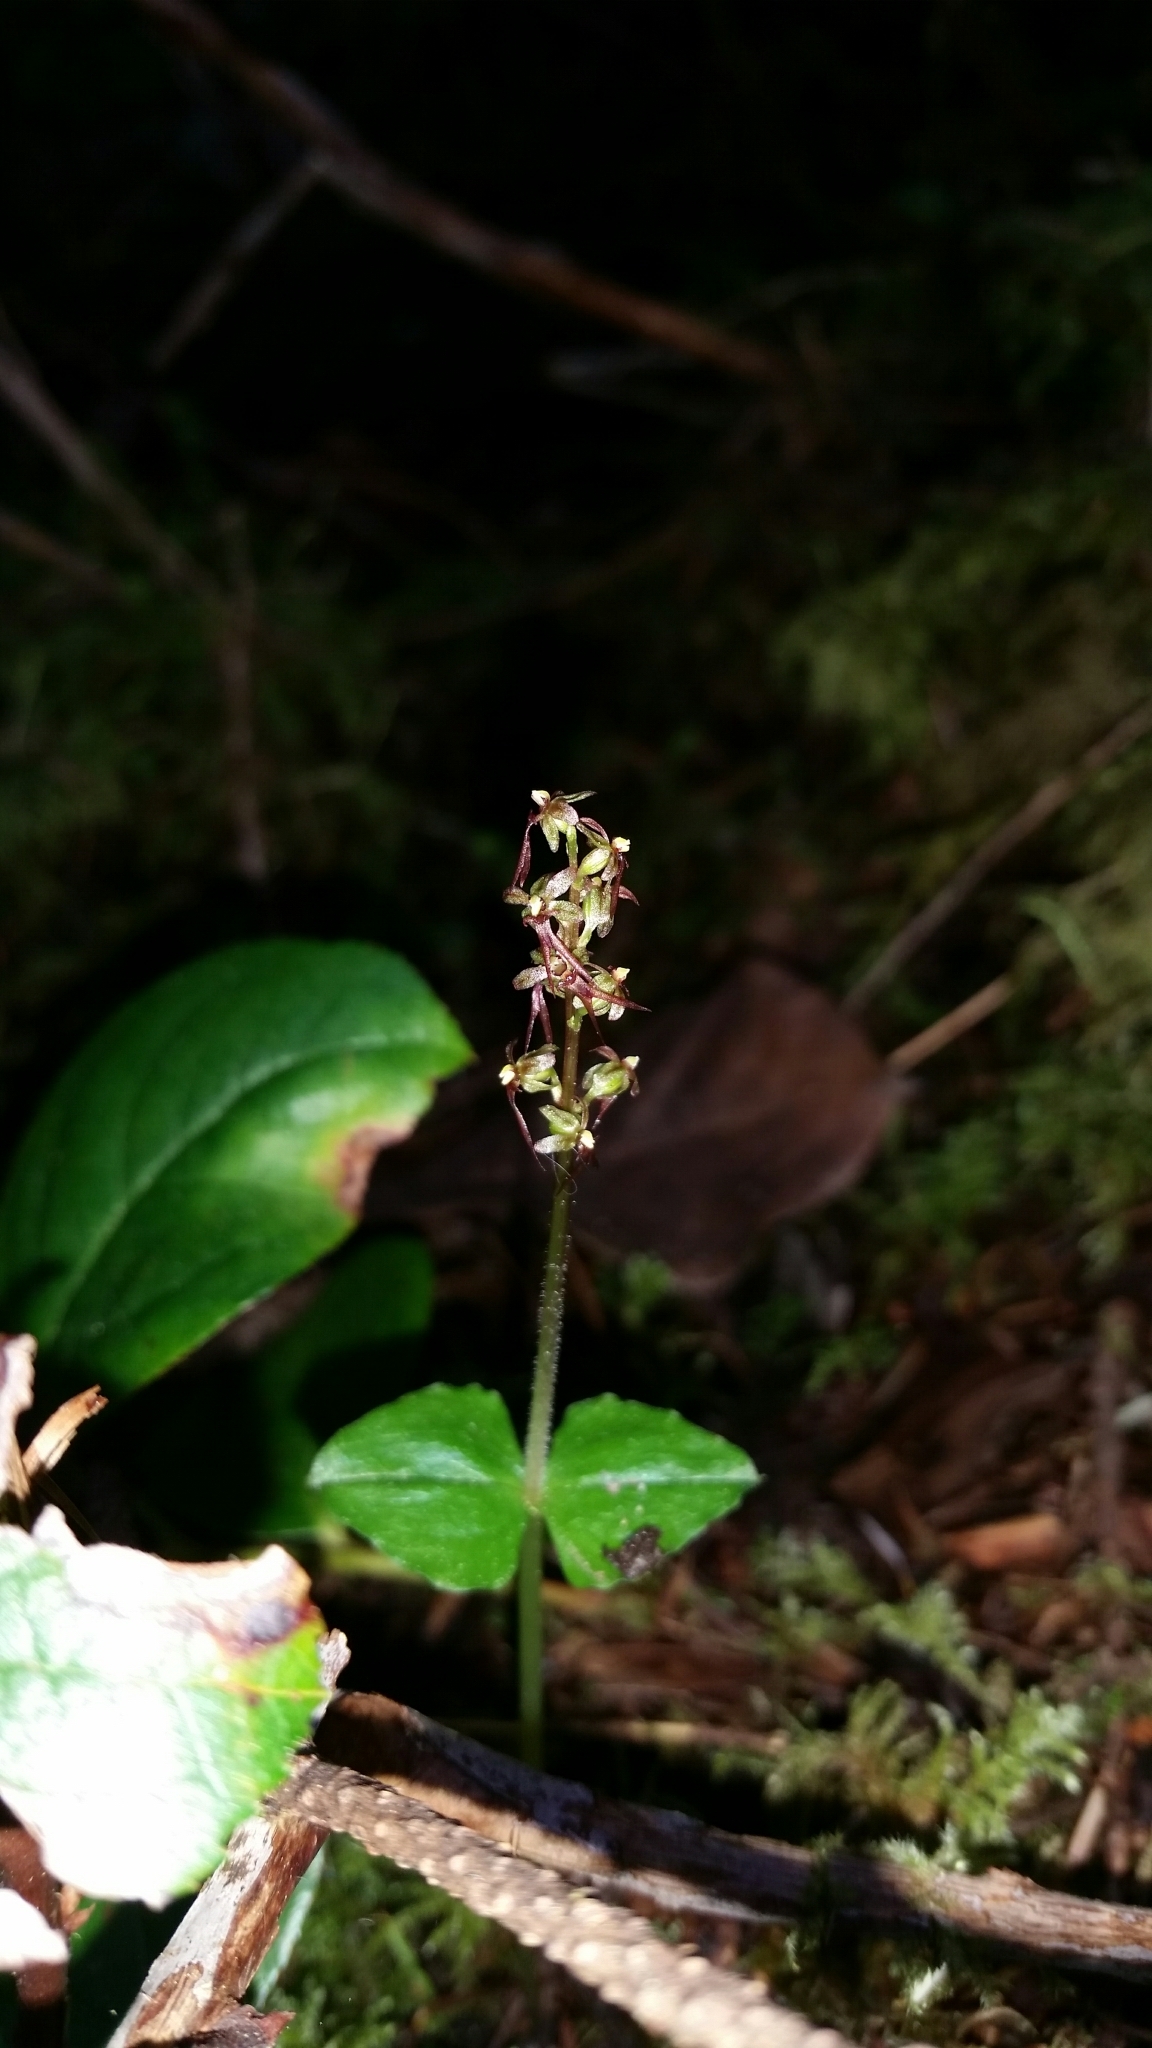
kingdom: Plantae
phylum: Tracheophyta
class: Liliopsida
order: Asparagales
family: Orchidaceae
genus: Neottia
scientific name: Neottia cordata
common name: Lesser twayblade
